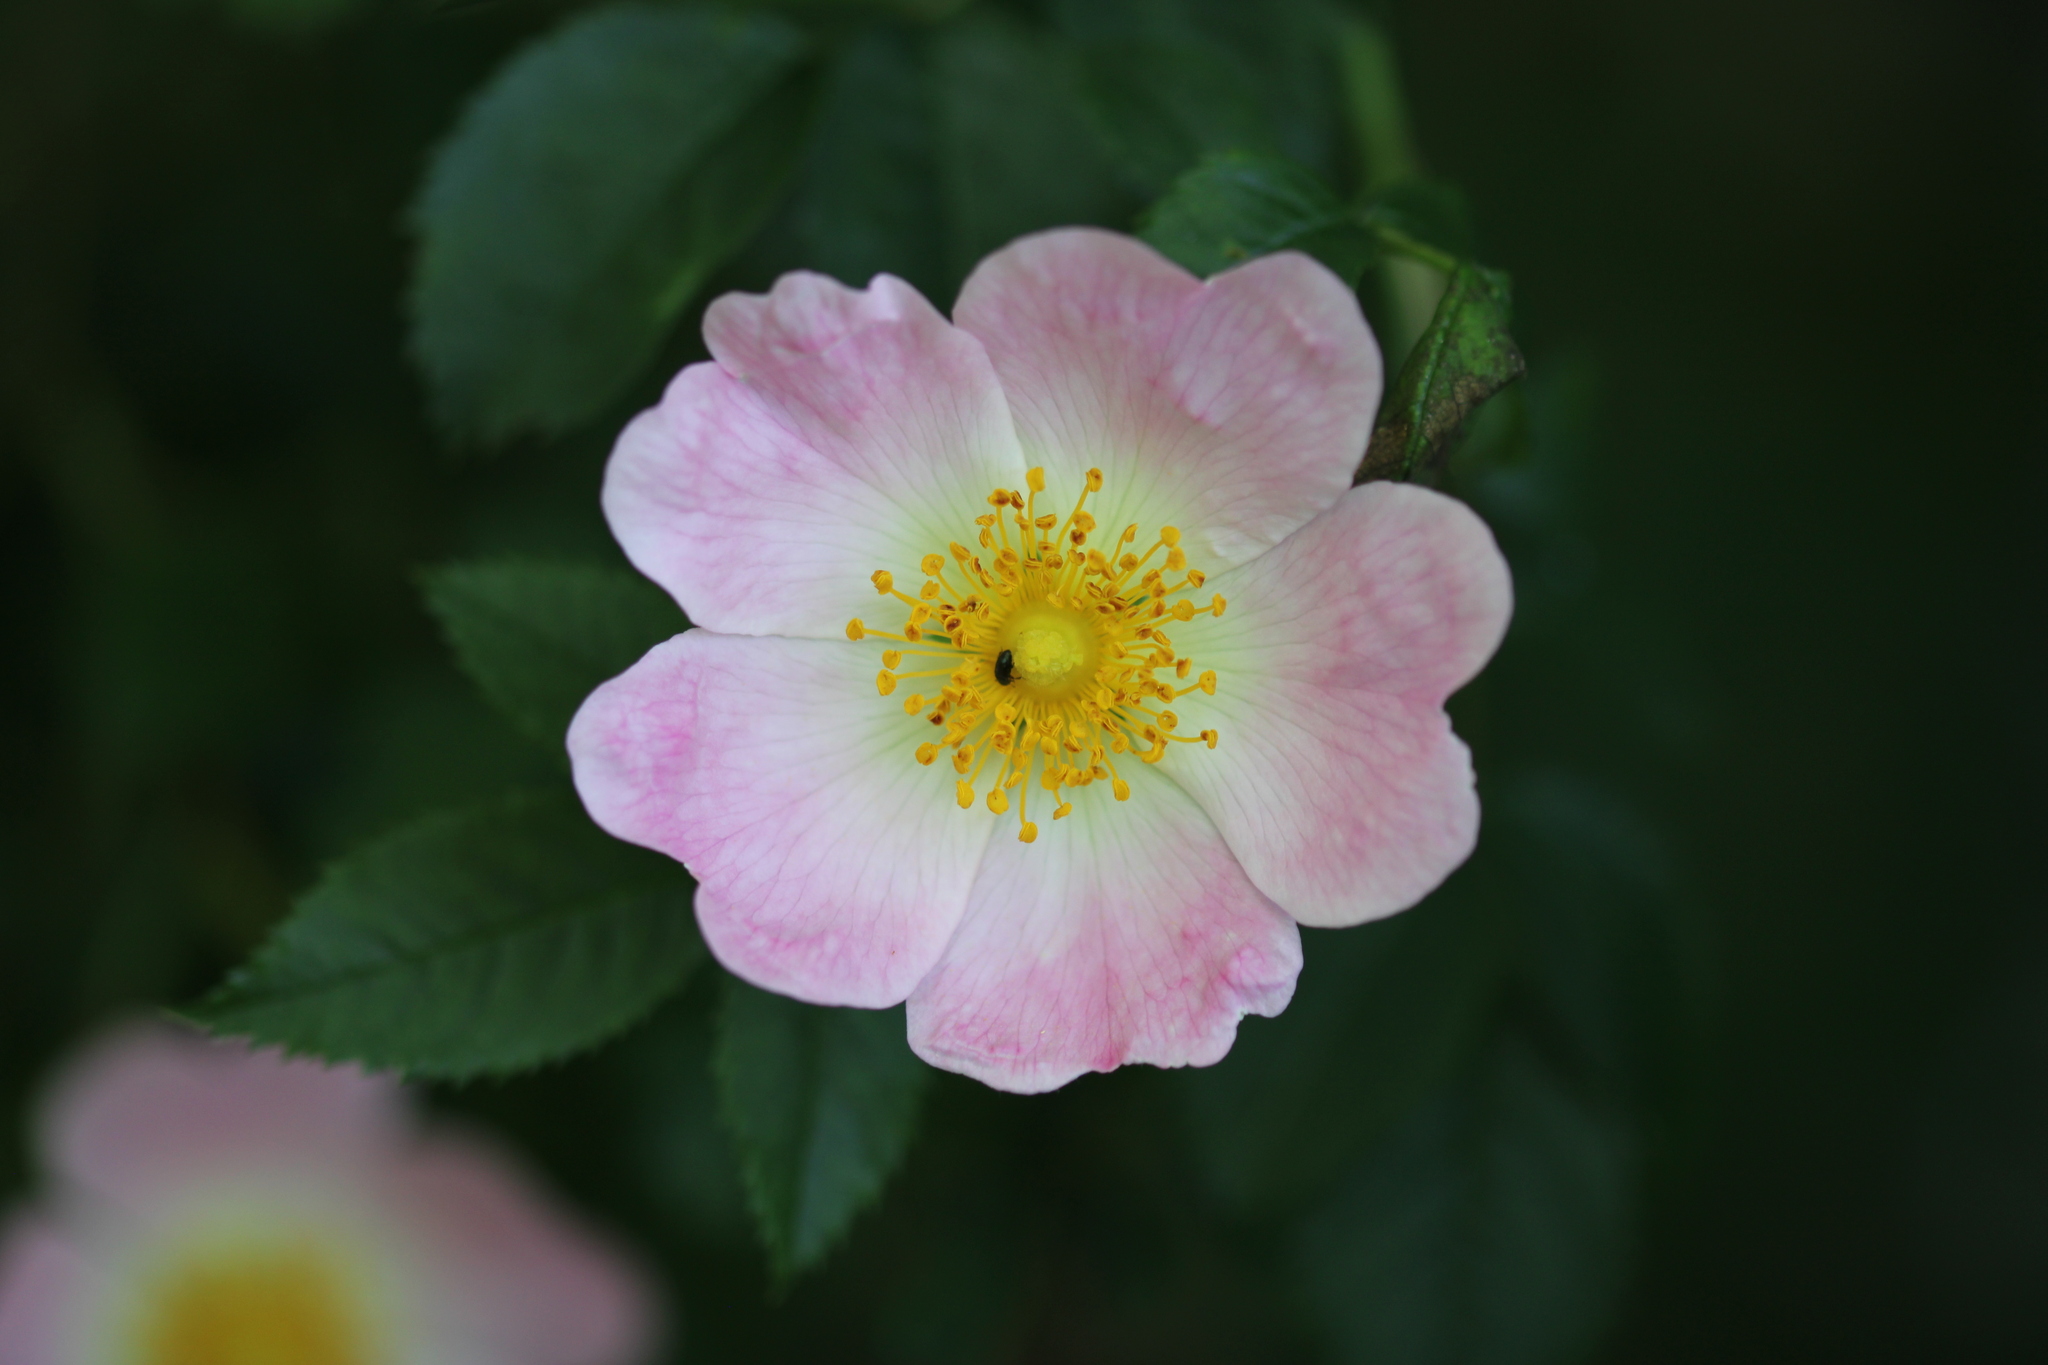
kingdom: Plantae
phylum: Tracheophyta
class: Magnoliopsida
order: Rosales
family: Rosaceae
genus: Rosa
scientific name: Rosa canina
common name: Dog rose
